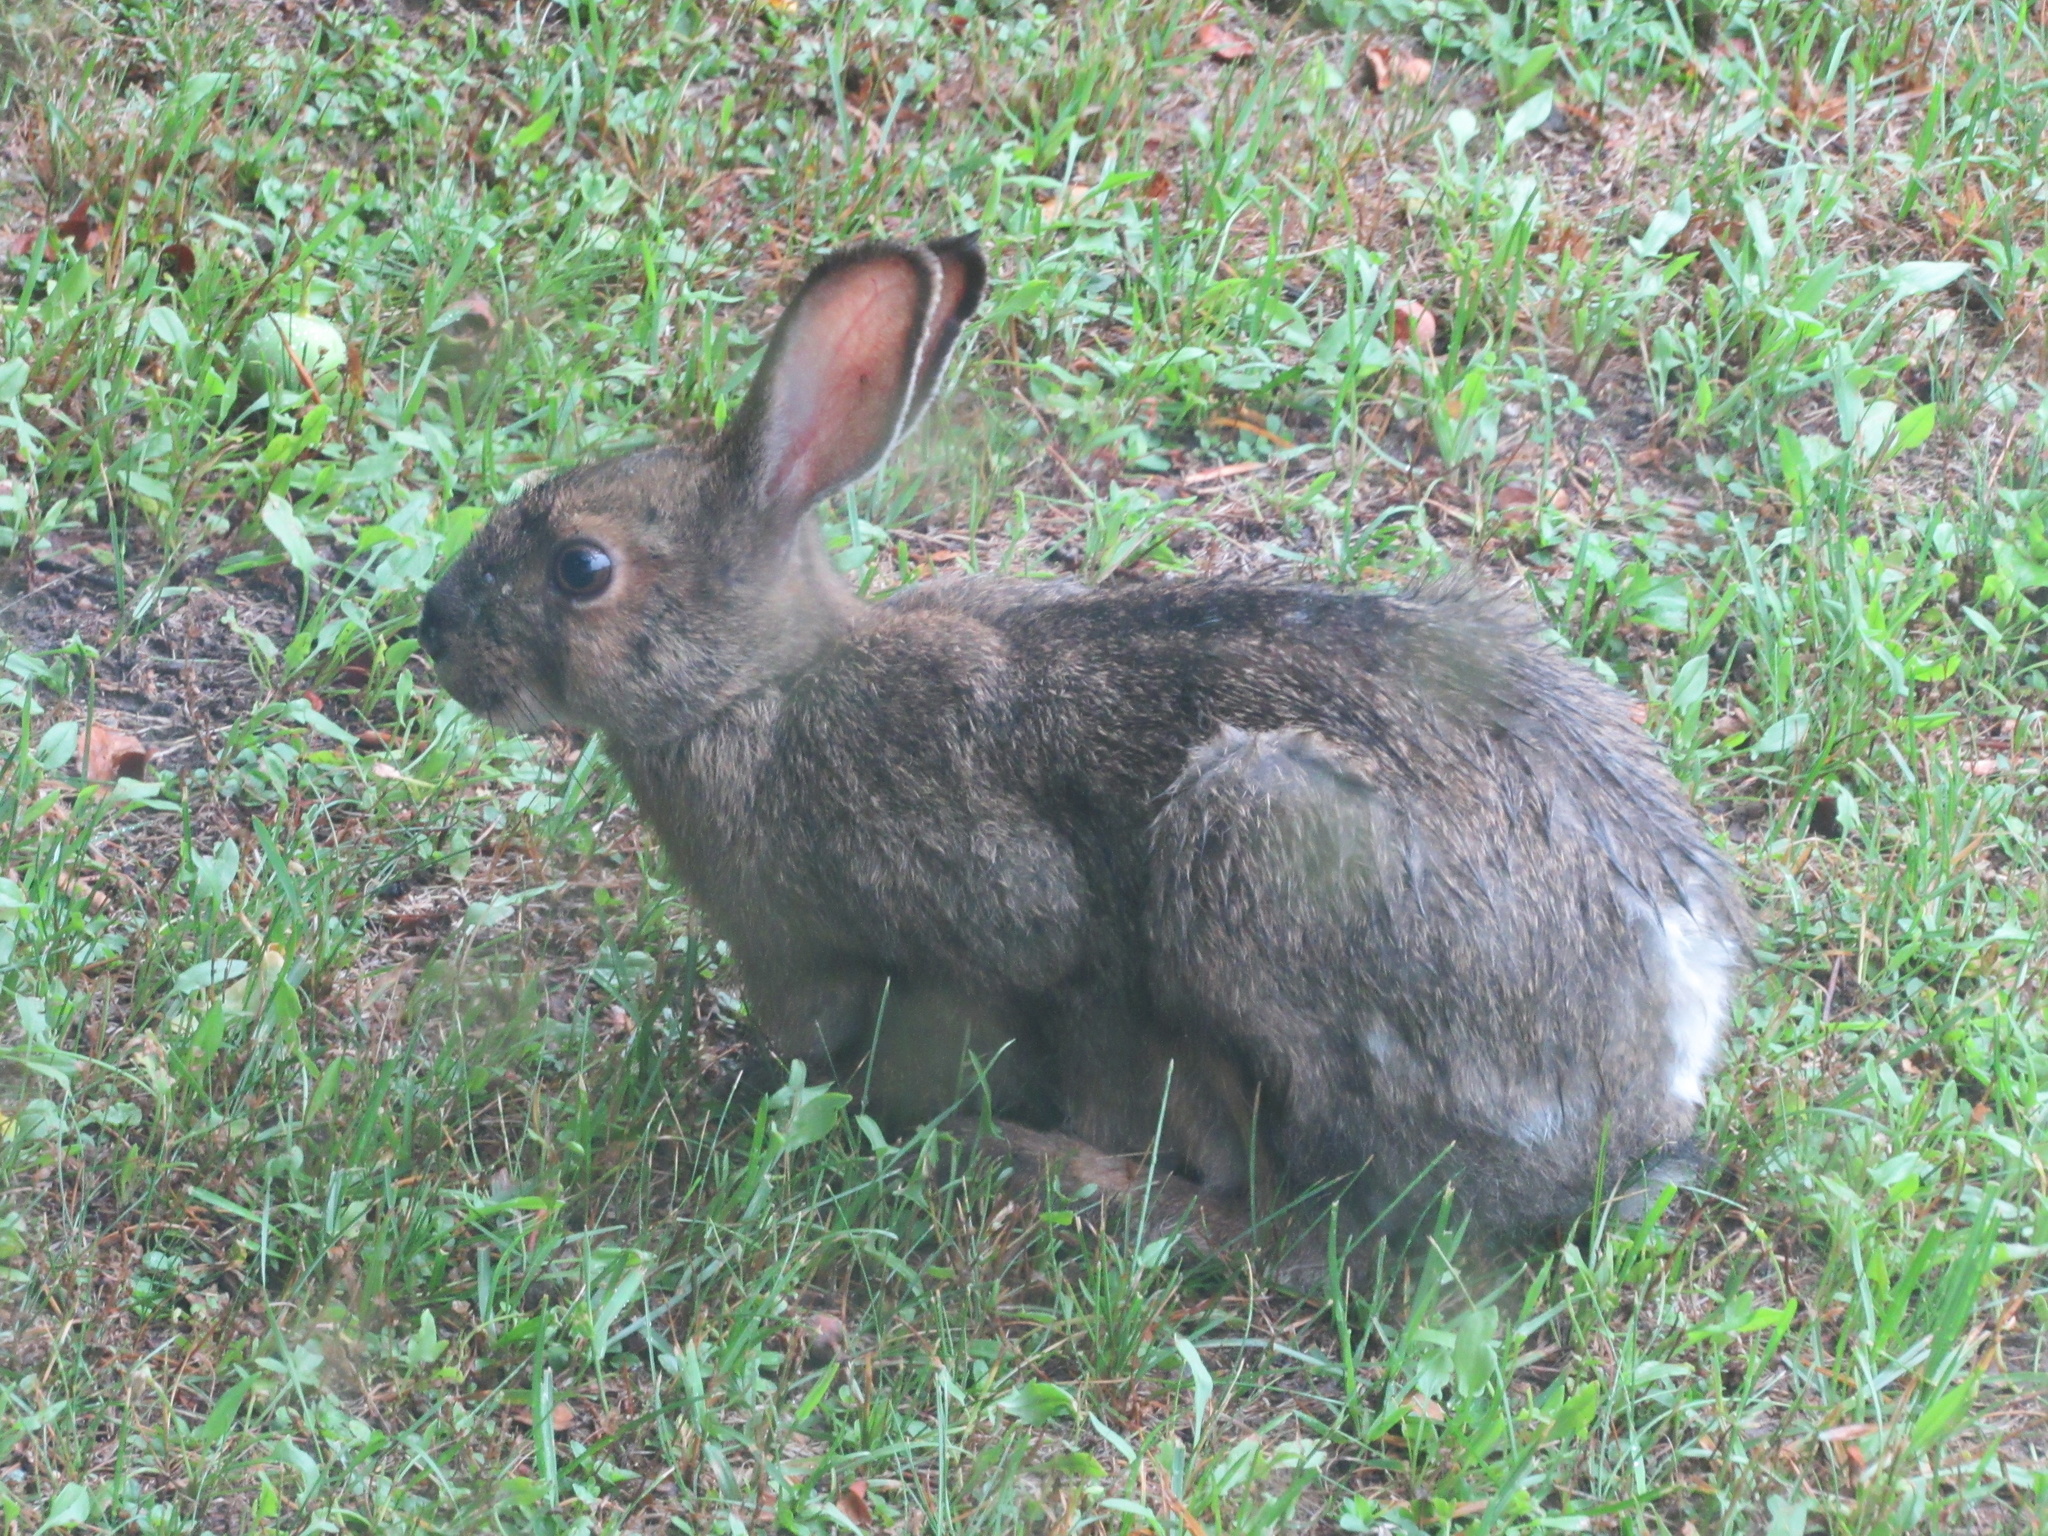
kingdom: Animalia
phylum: Chordata
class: Mammalia
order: Lagomorpha
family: Leporidae
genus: Lepus
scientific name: Lepus americanus
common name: Snowshoe hare
